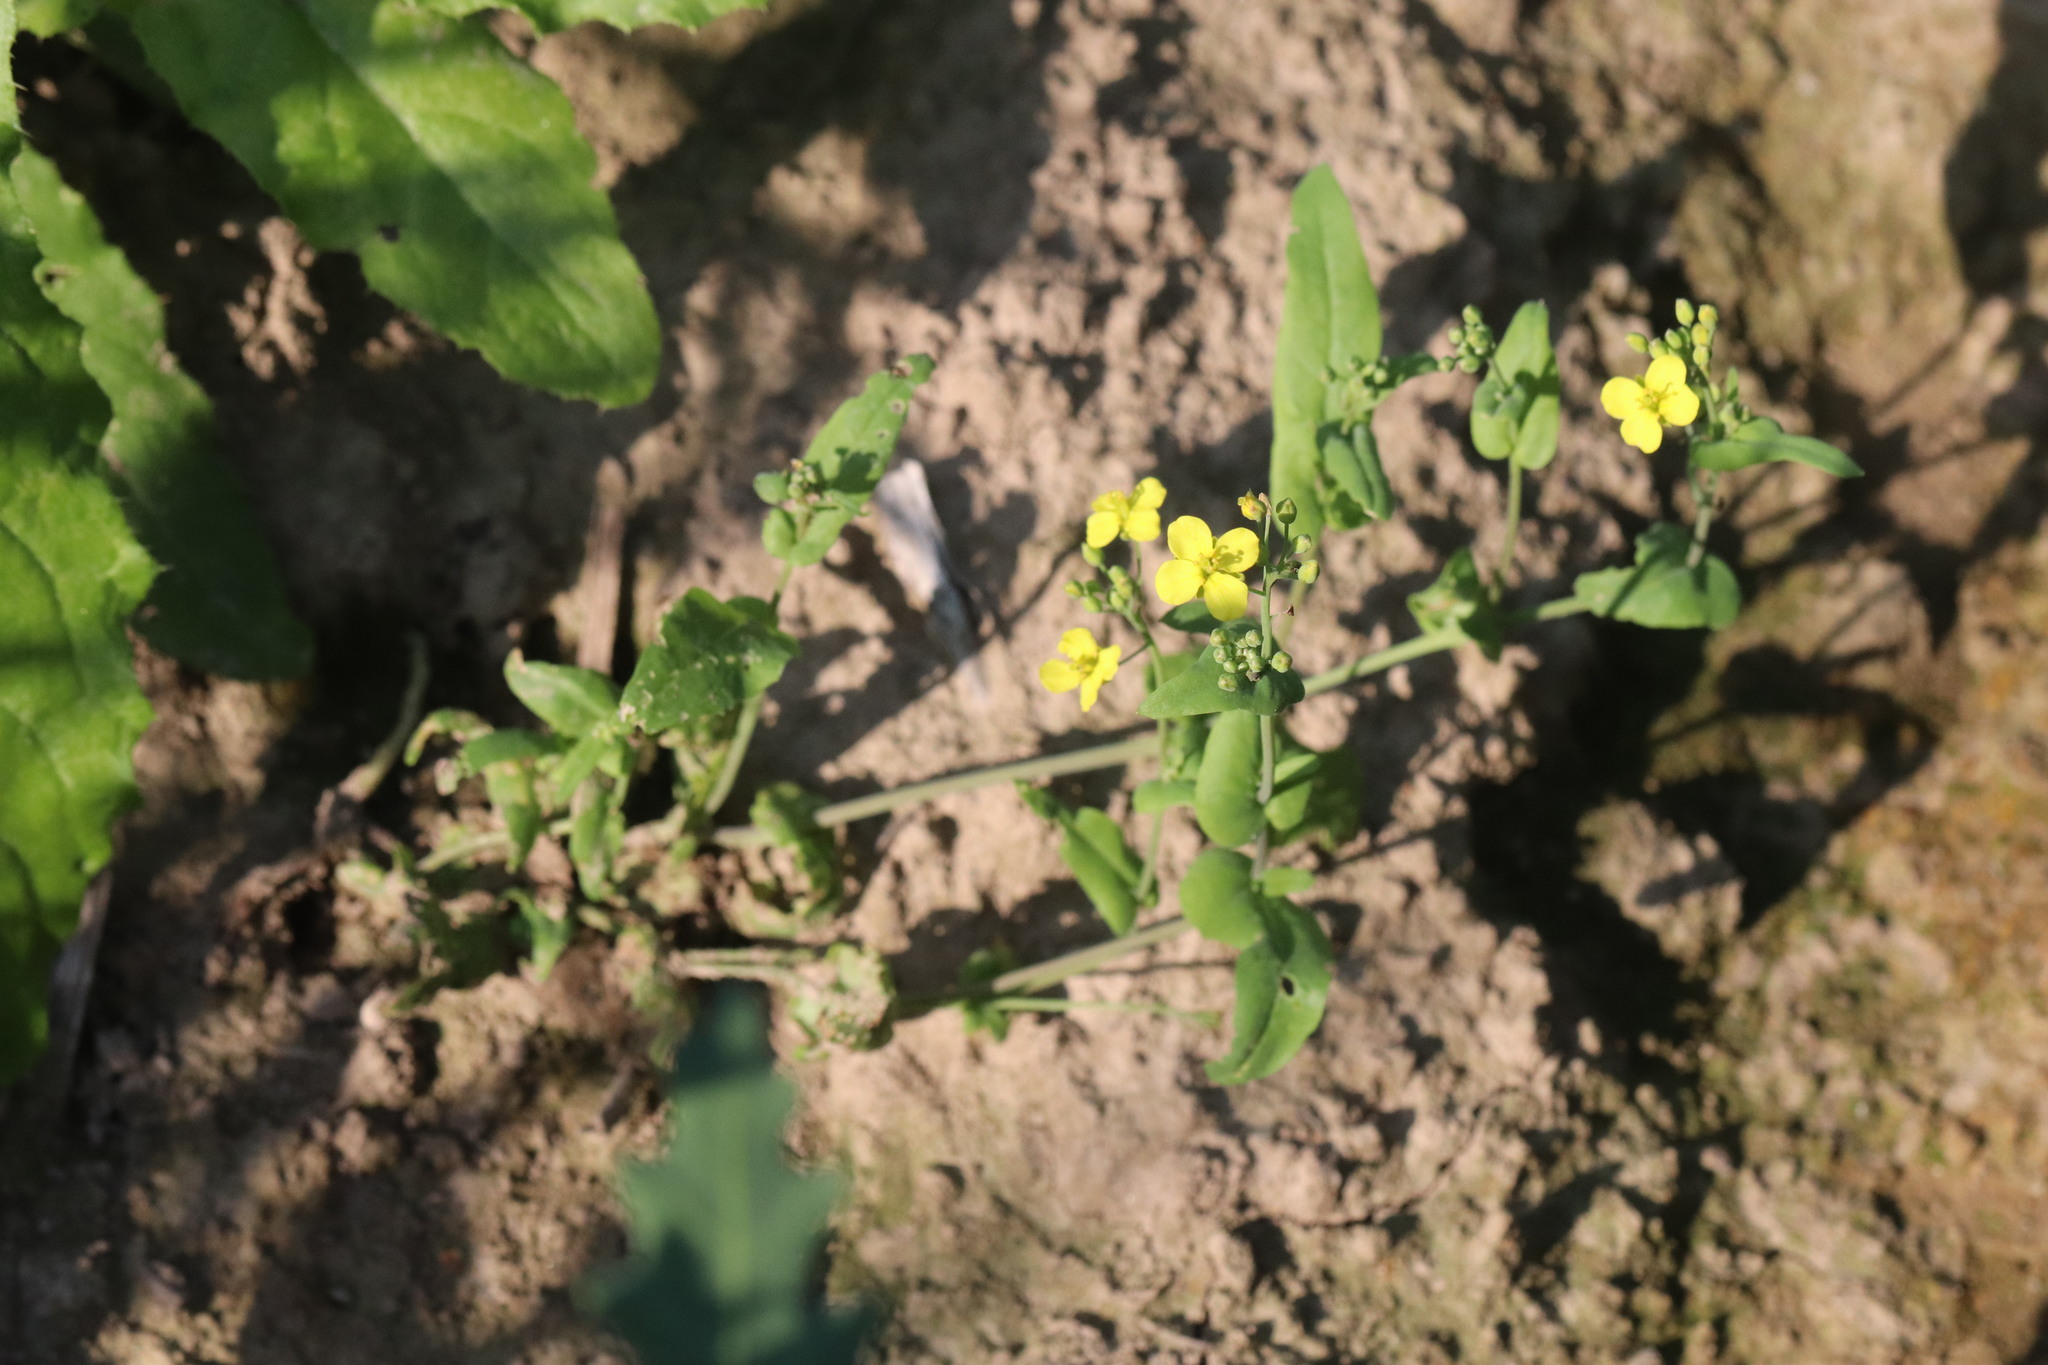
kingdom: Plantae
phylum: Tracheophyta
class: Magnoliopsida
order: Brassicales
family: Brassicaceae
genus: Brassica
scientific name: Brassica rapa
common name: Field mustard
